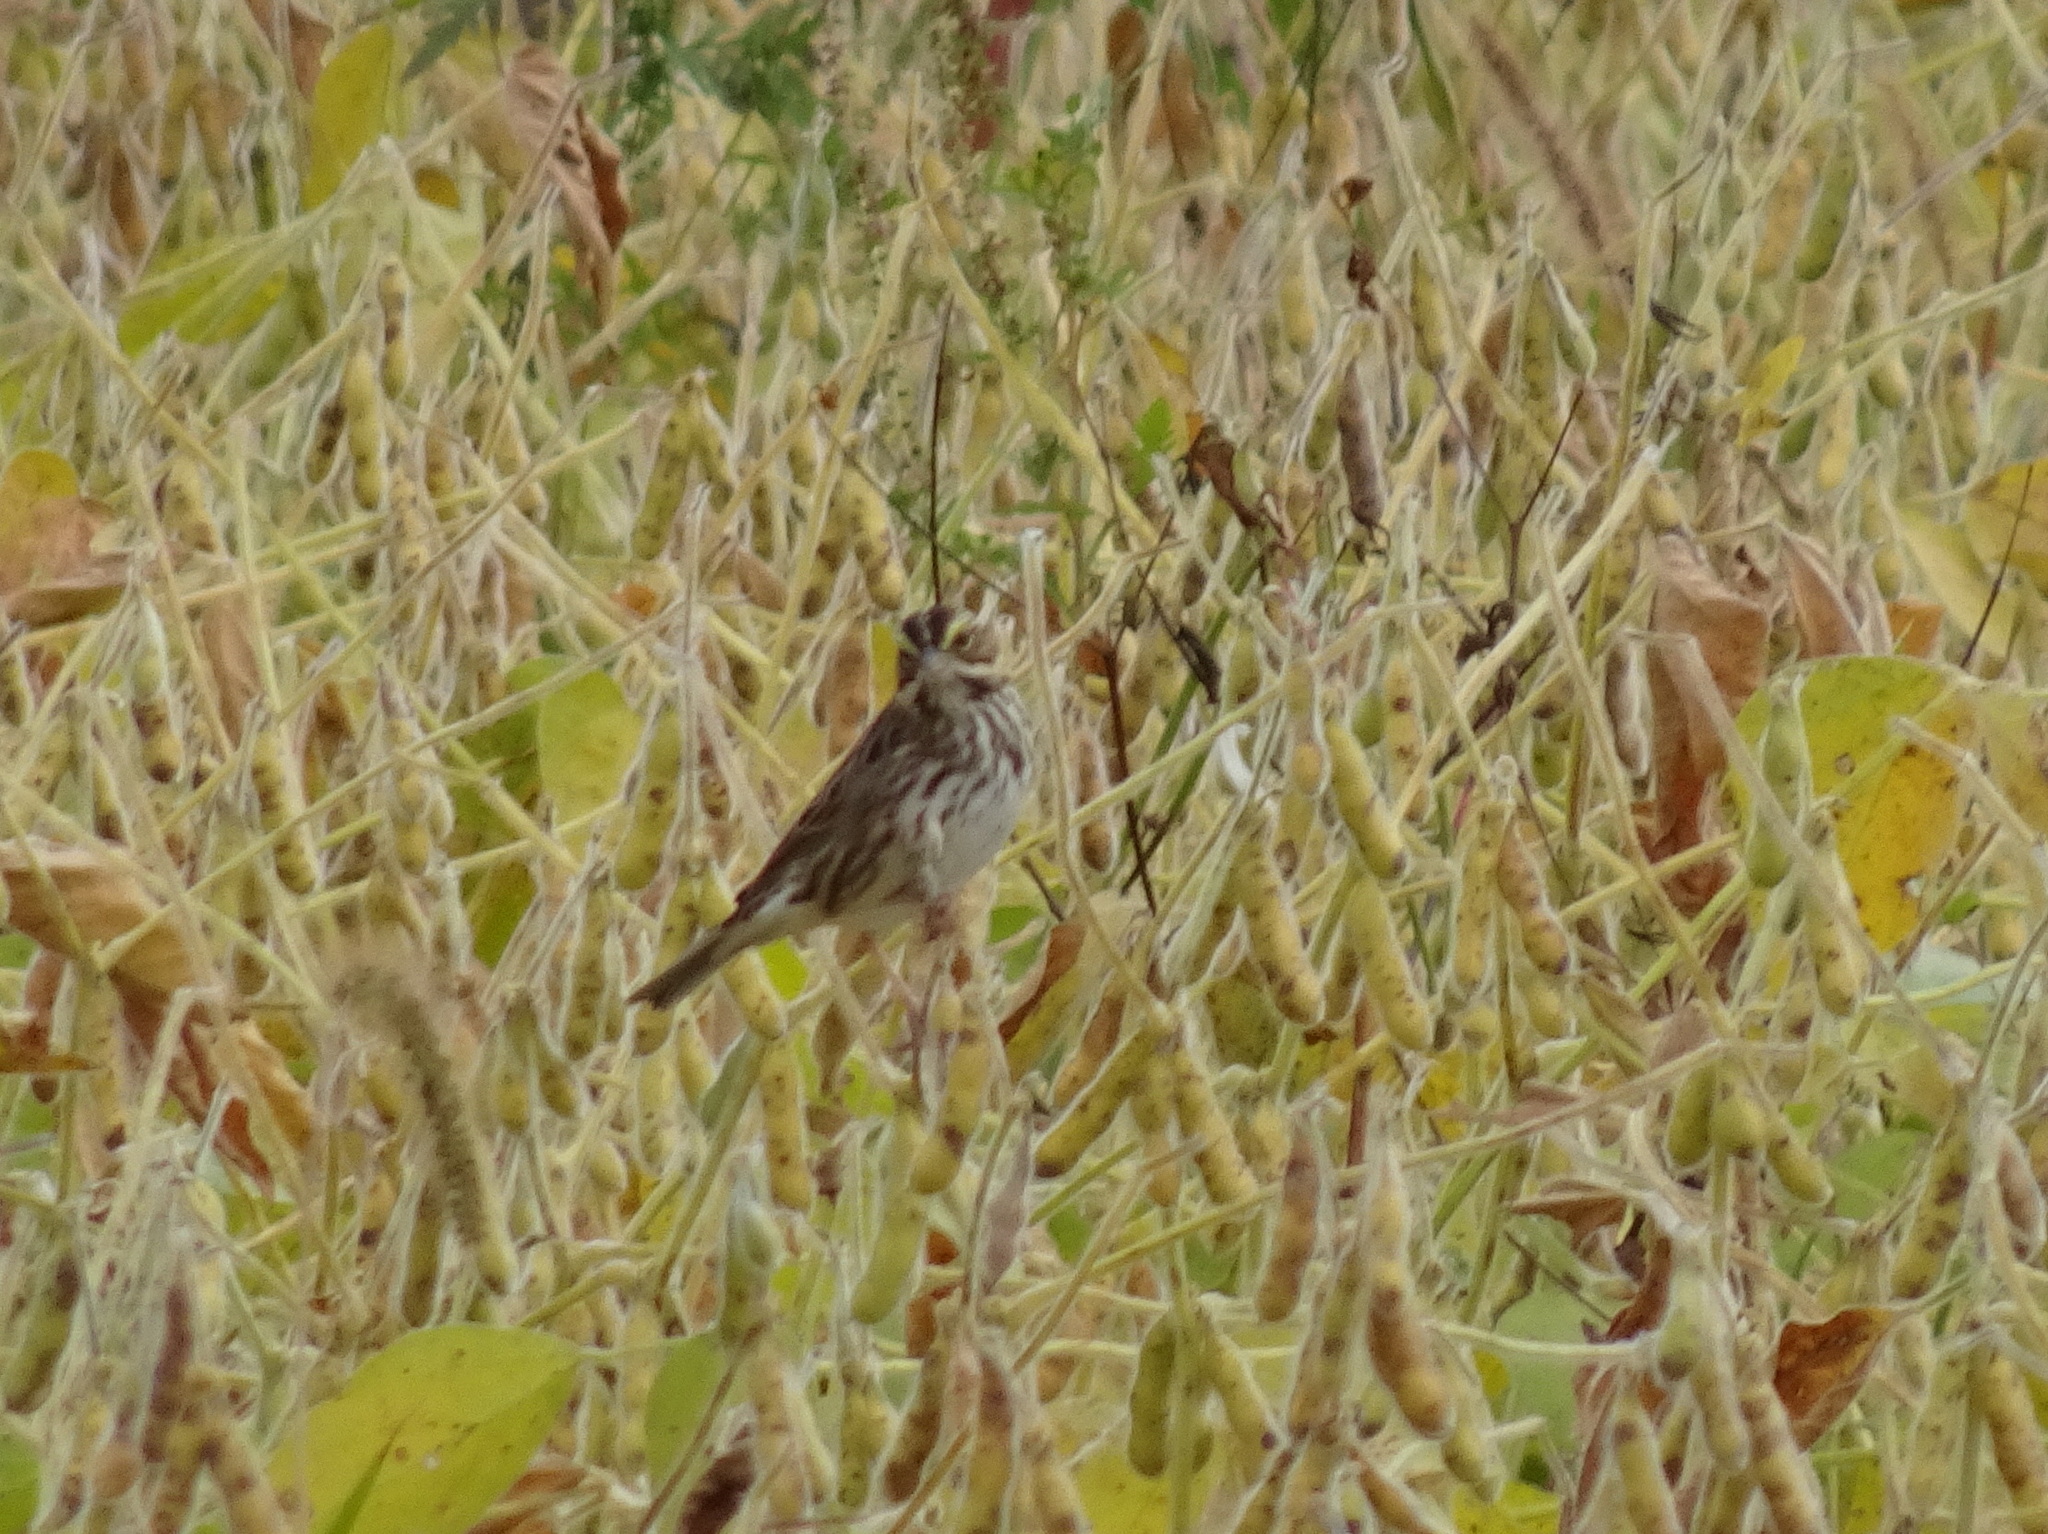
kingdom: Animalia
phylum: Chordata
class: Aves
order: Passeriformes
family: Passerellidae
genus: Passerculus
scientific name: Passerculus sandwichensis
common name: Savannah sparrow
